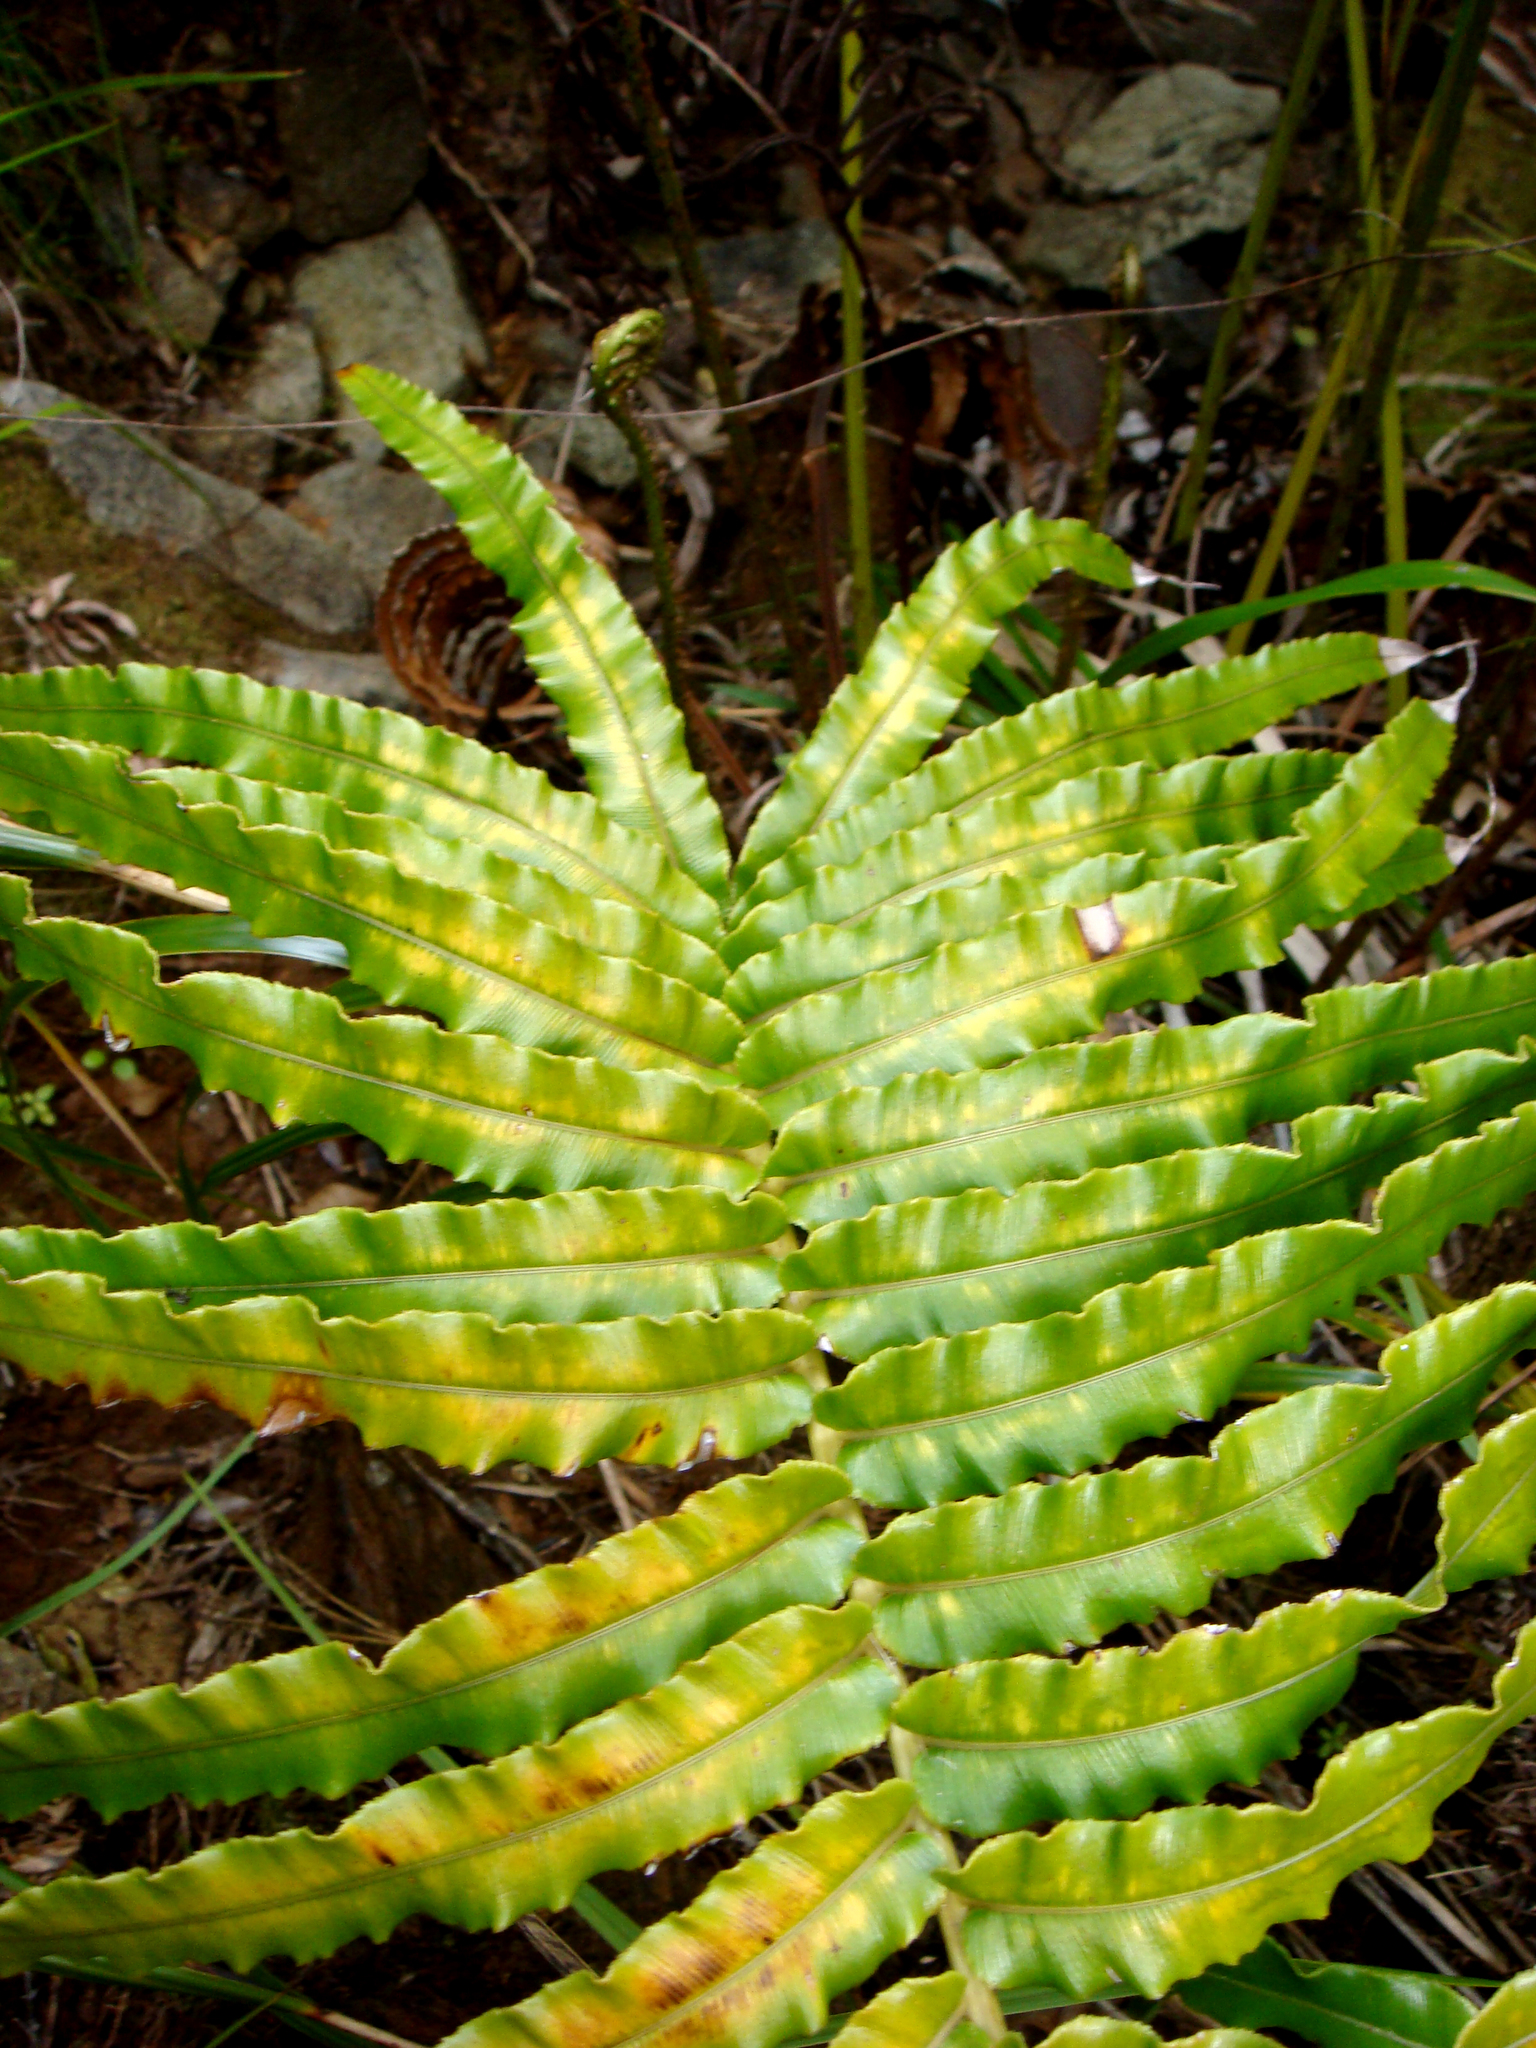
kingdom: Plantae
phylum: Tracheophyta
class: Polypodiopsida
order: Polypodiales
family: Blechnaceae
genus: Parablechnum
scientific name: Parablechnum triangularifolium
